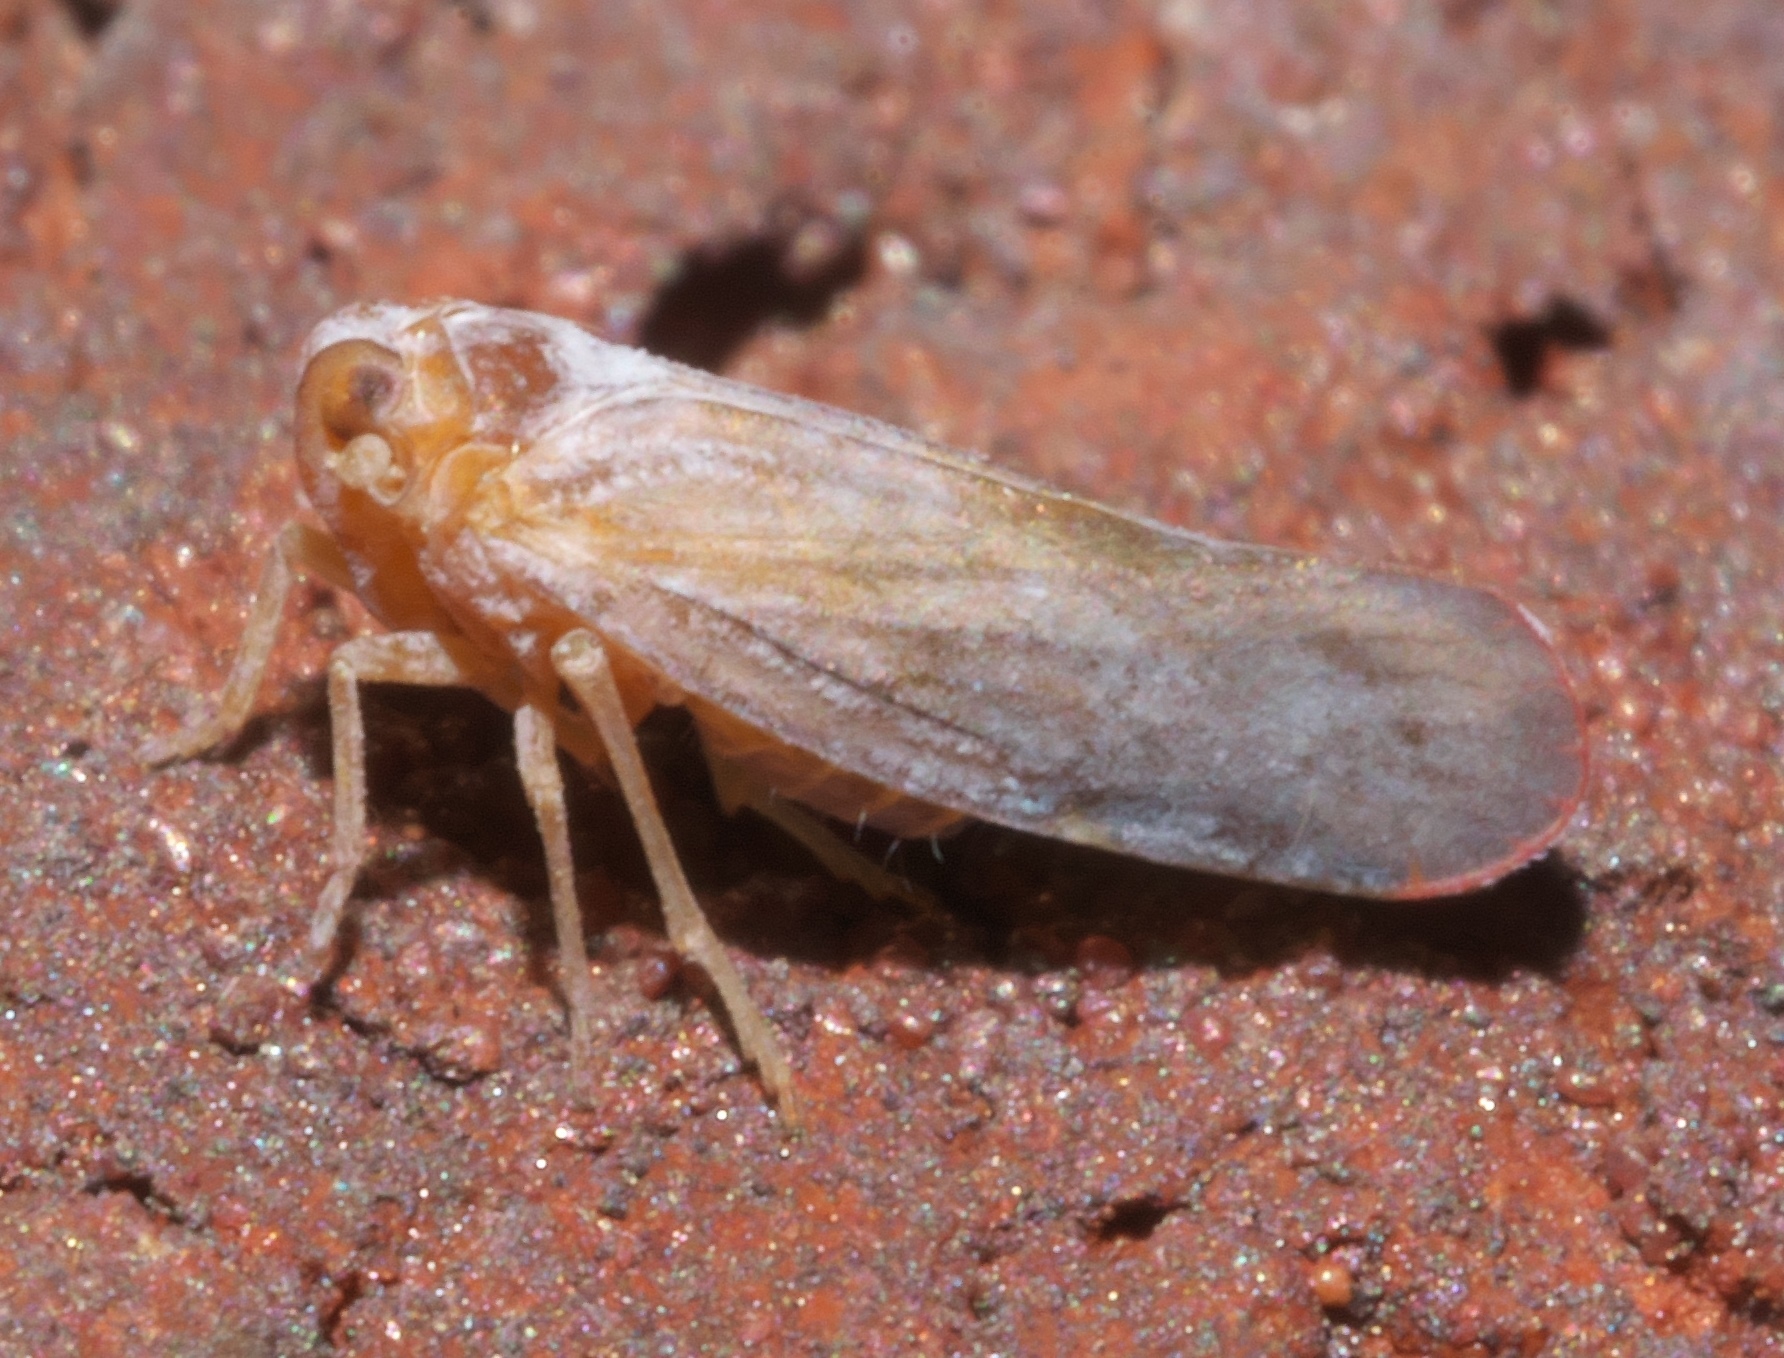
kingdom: Animalia
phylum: Arthropoda
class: Insecta
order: Hemiptera
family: Derbidae
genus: Omolicna
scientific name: Omolicna mcateei
